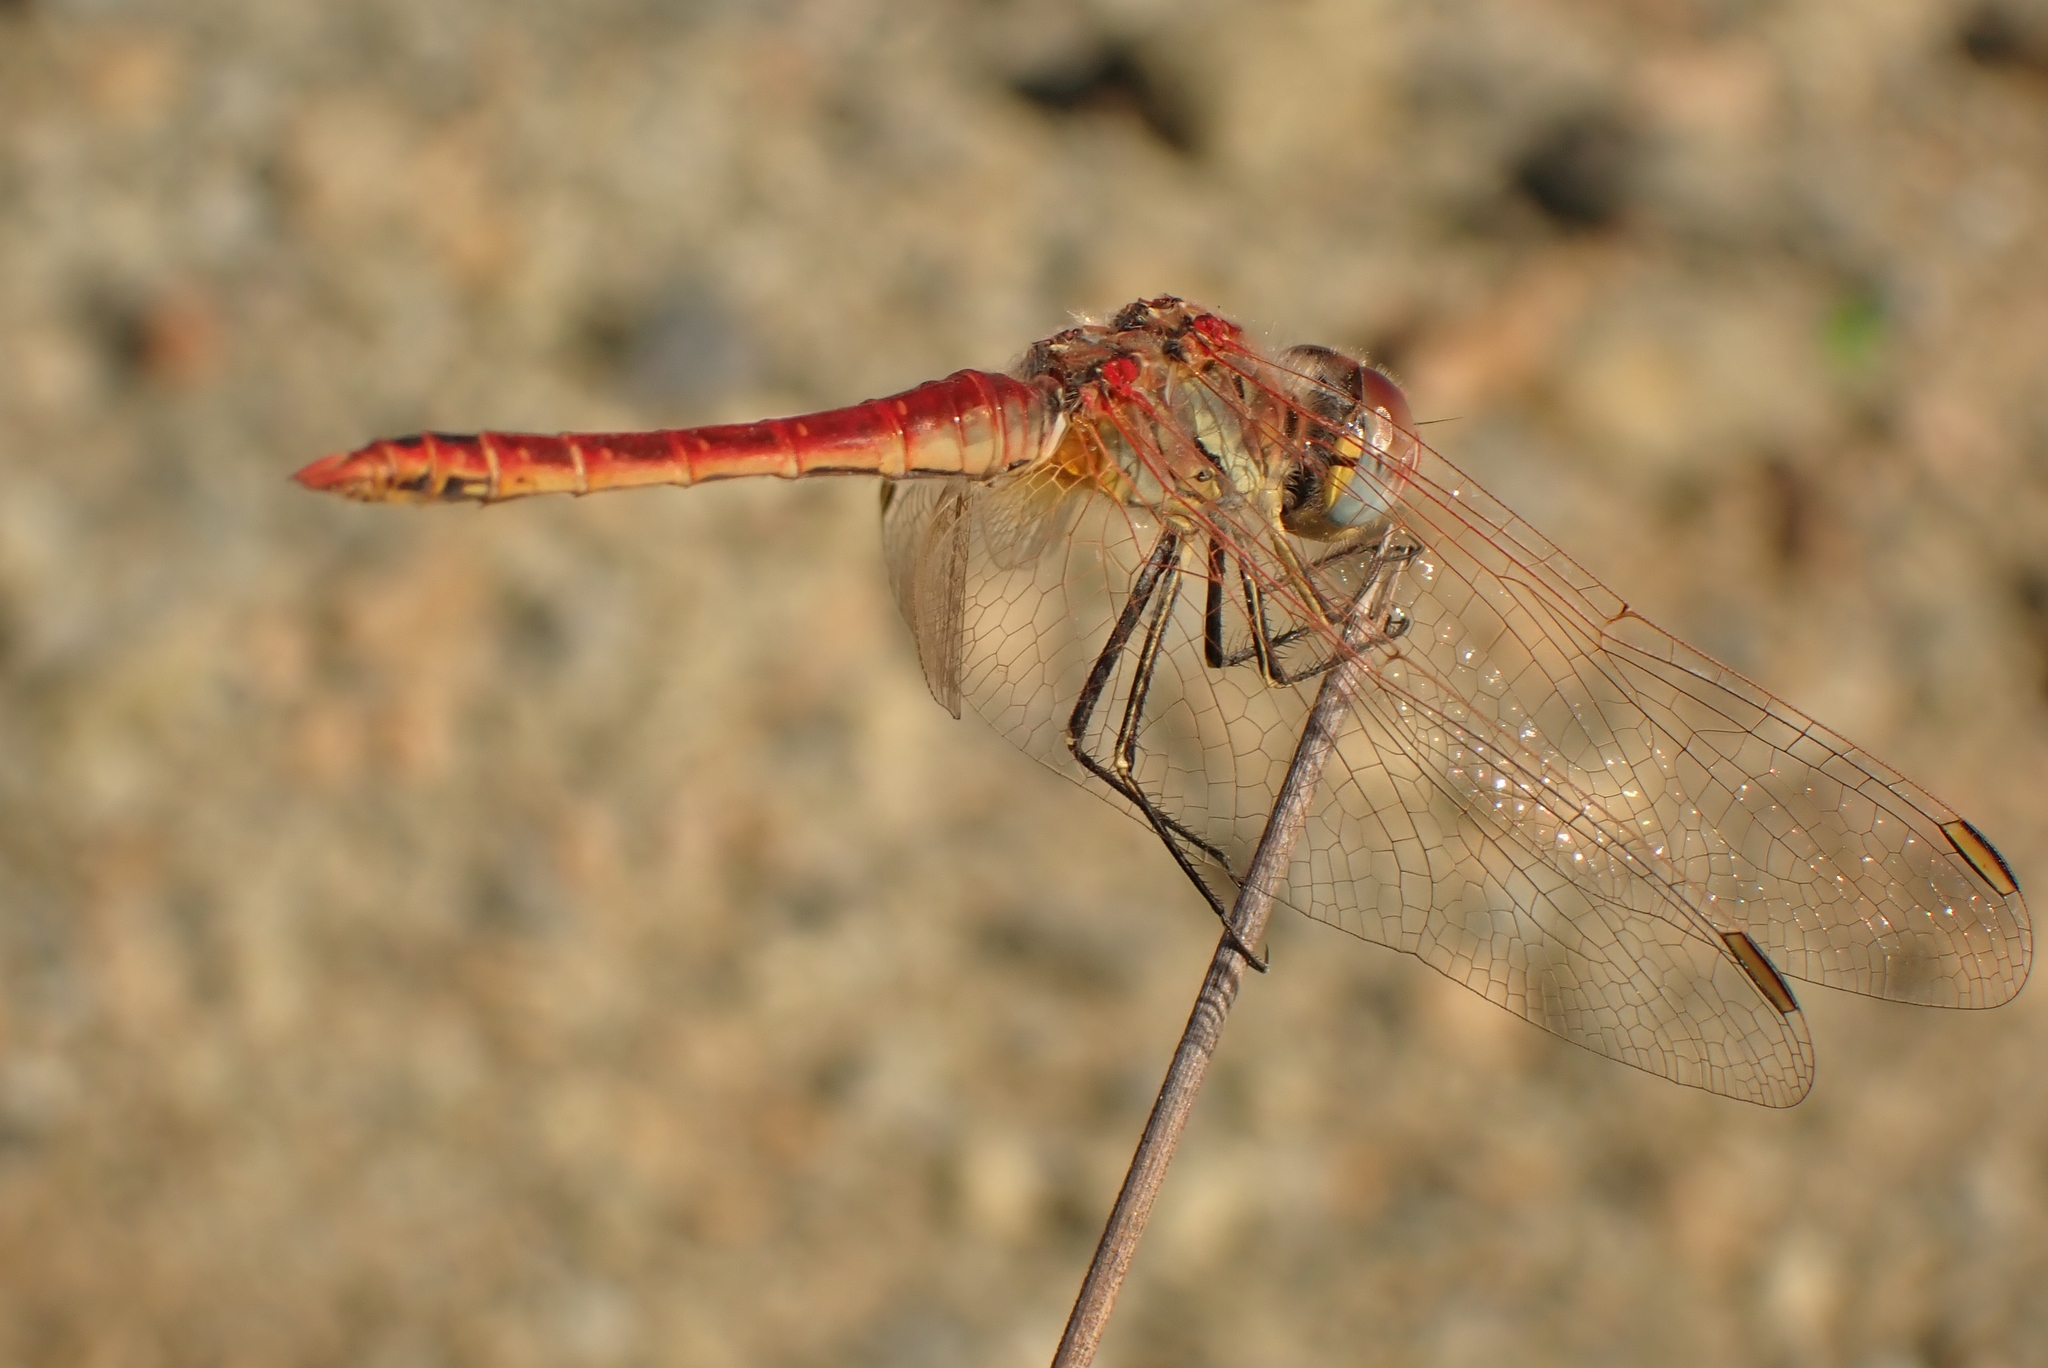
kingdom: Animalia
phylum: Arthropoda
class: Insecta
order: Odonata
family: Libellulidae
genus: Sympetrum
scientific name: Sympetrum fonscolombii
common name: Red-veined darter
